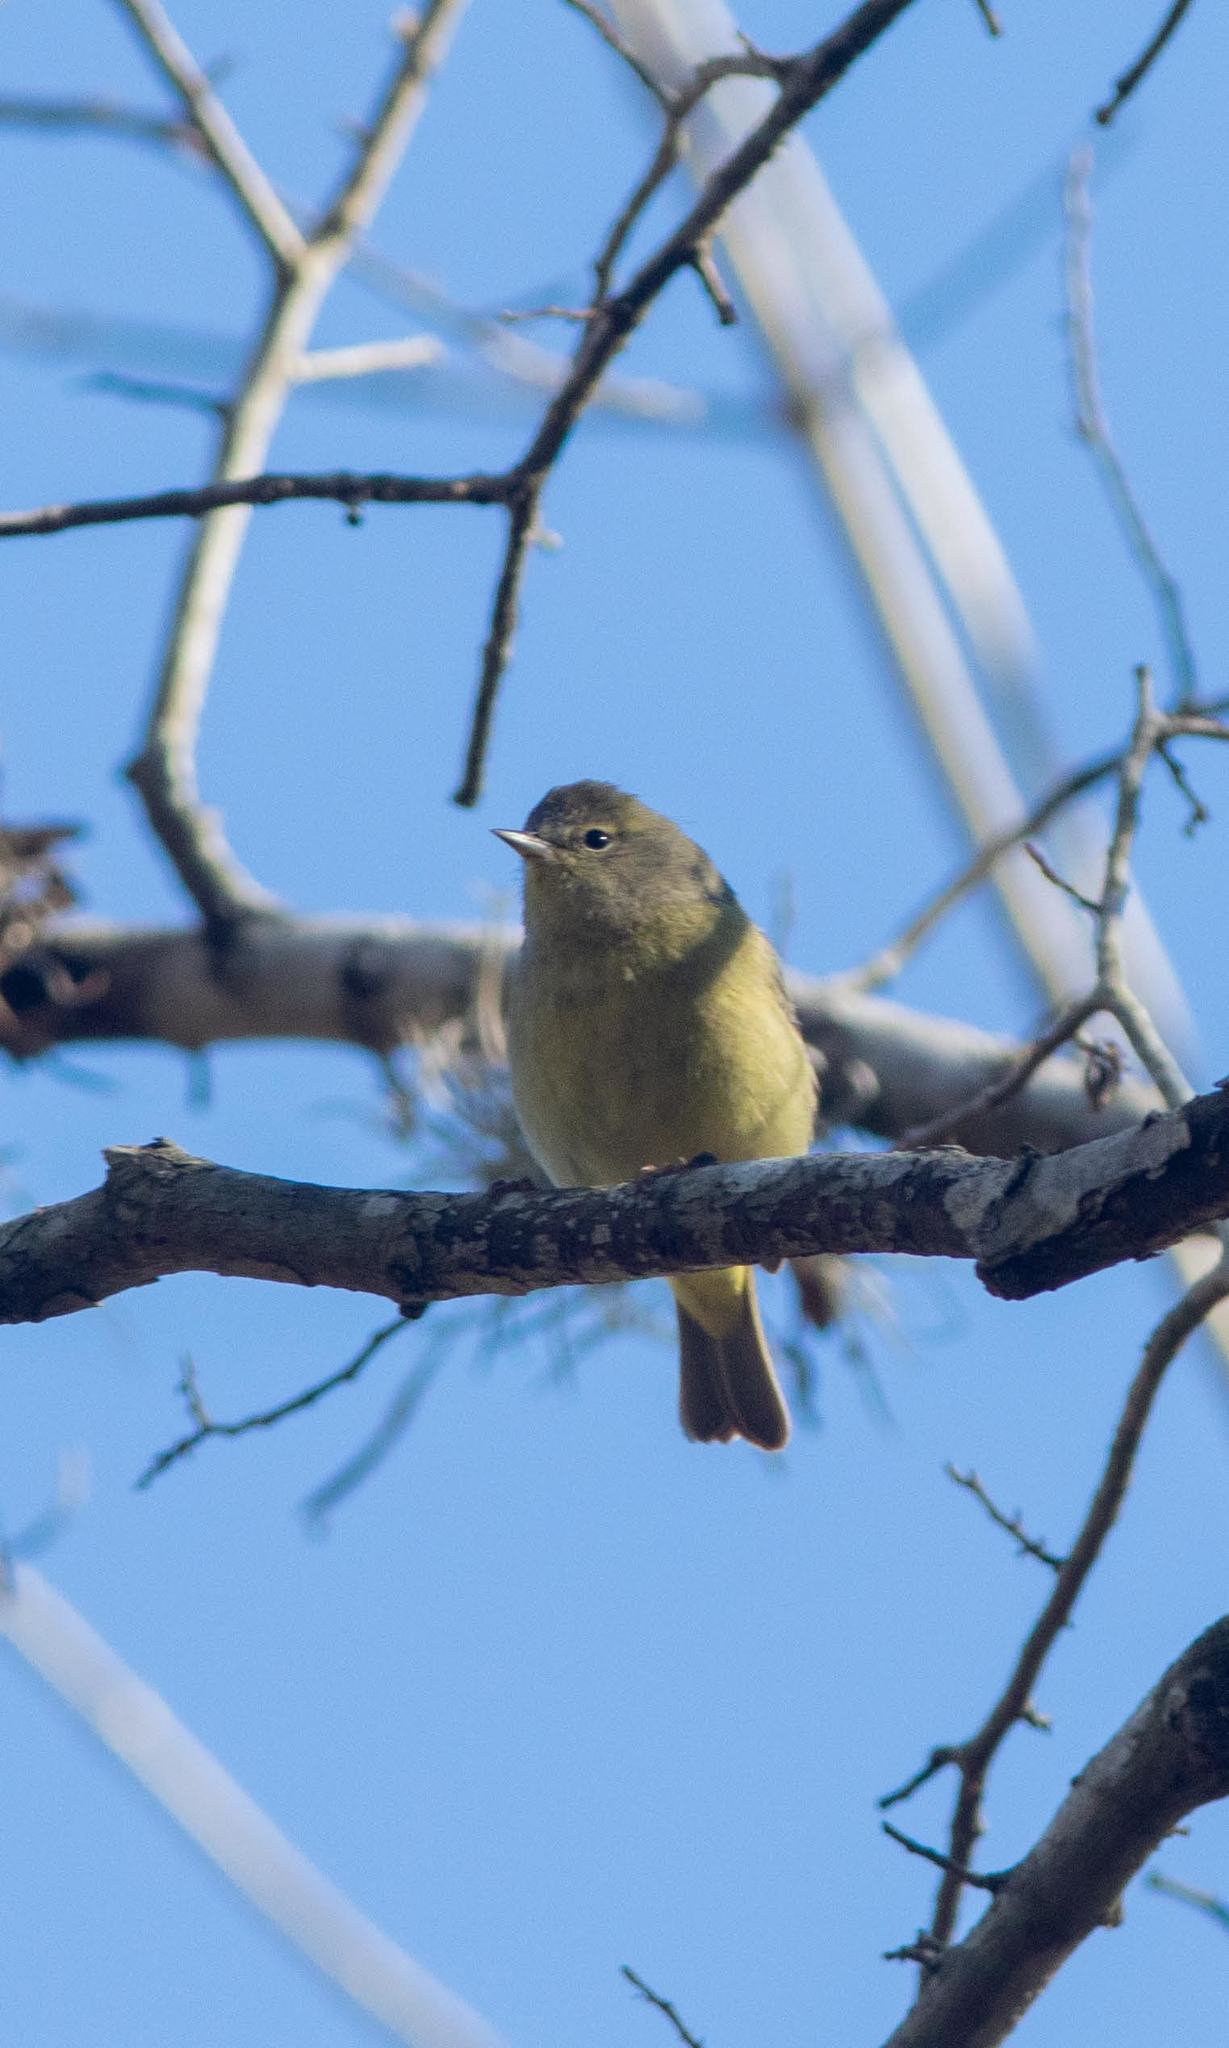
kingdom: Animalia
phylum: Chordata
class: Aves
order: Passeriformes
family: Parulidae
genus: Leiothlypis
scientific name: Leiothlypis celata
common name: Orange-crowned warbler
